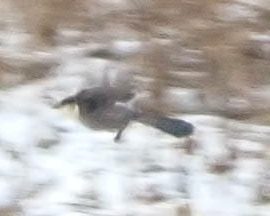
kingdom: Animalia
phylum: Chordata
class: Aves
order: Passeriformes
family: Corvidae
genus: Perisoreus
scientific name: Perisoreus canadensis
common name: Gray jay
